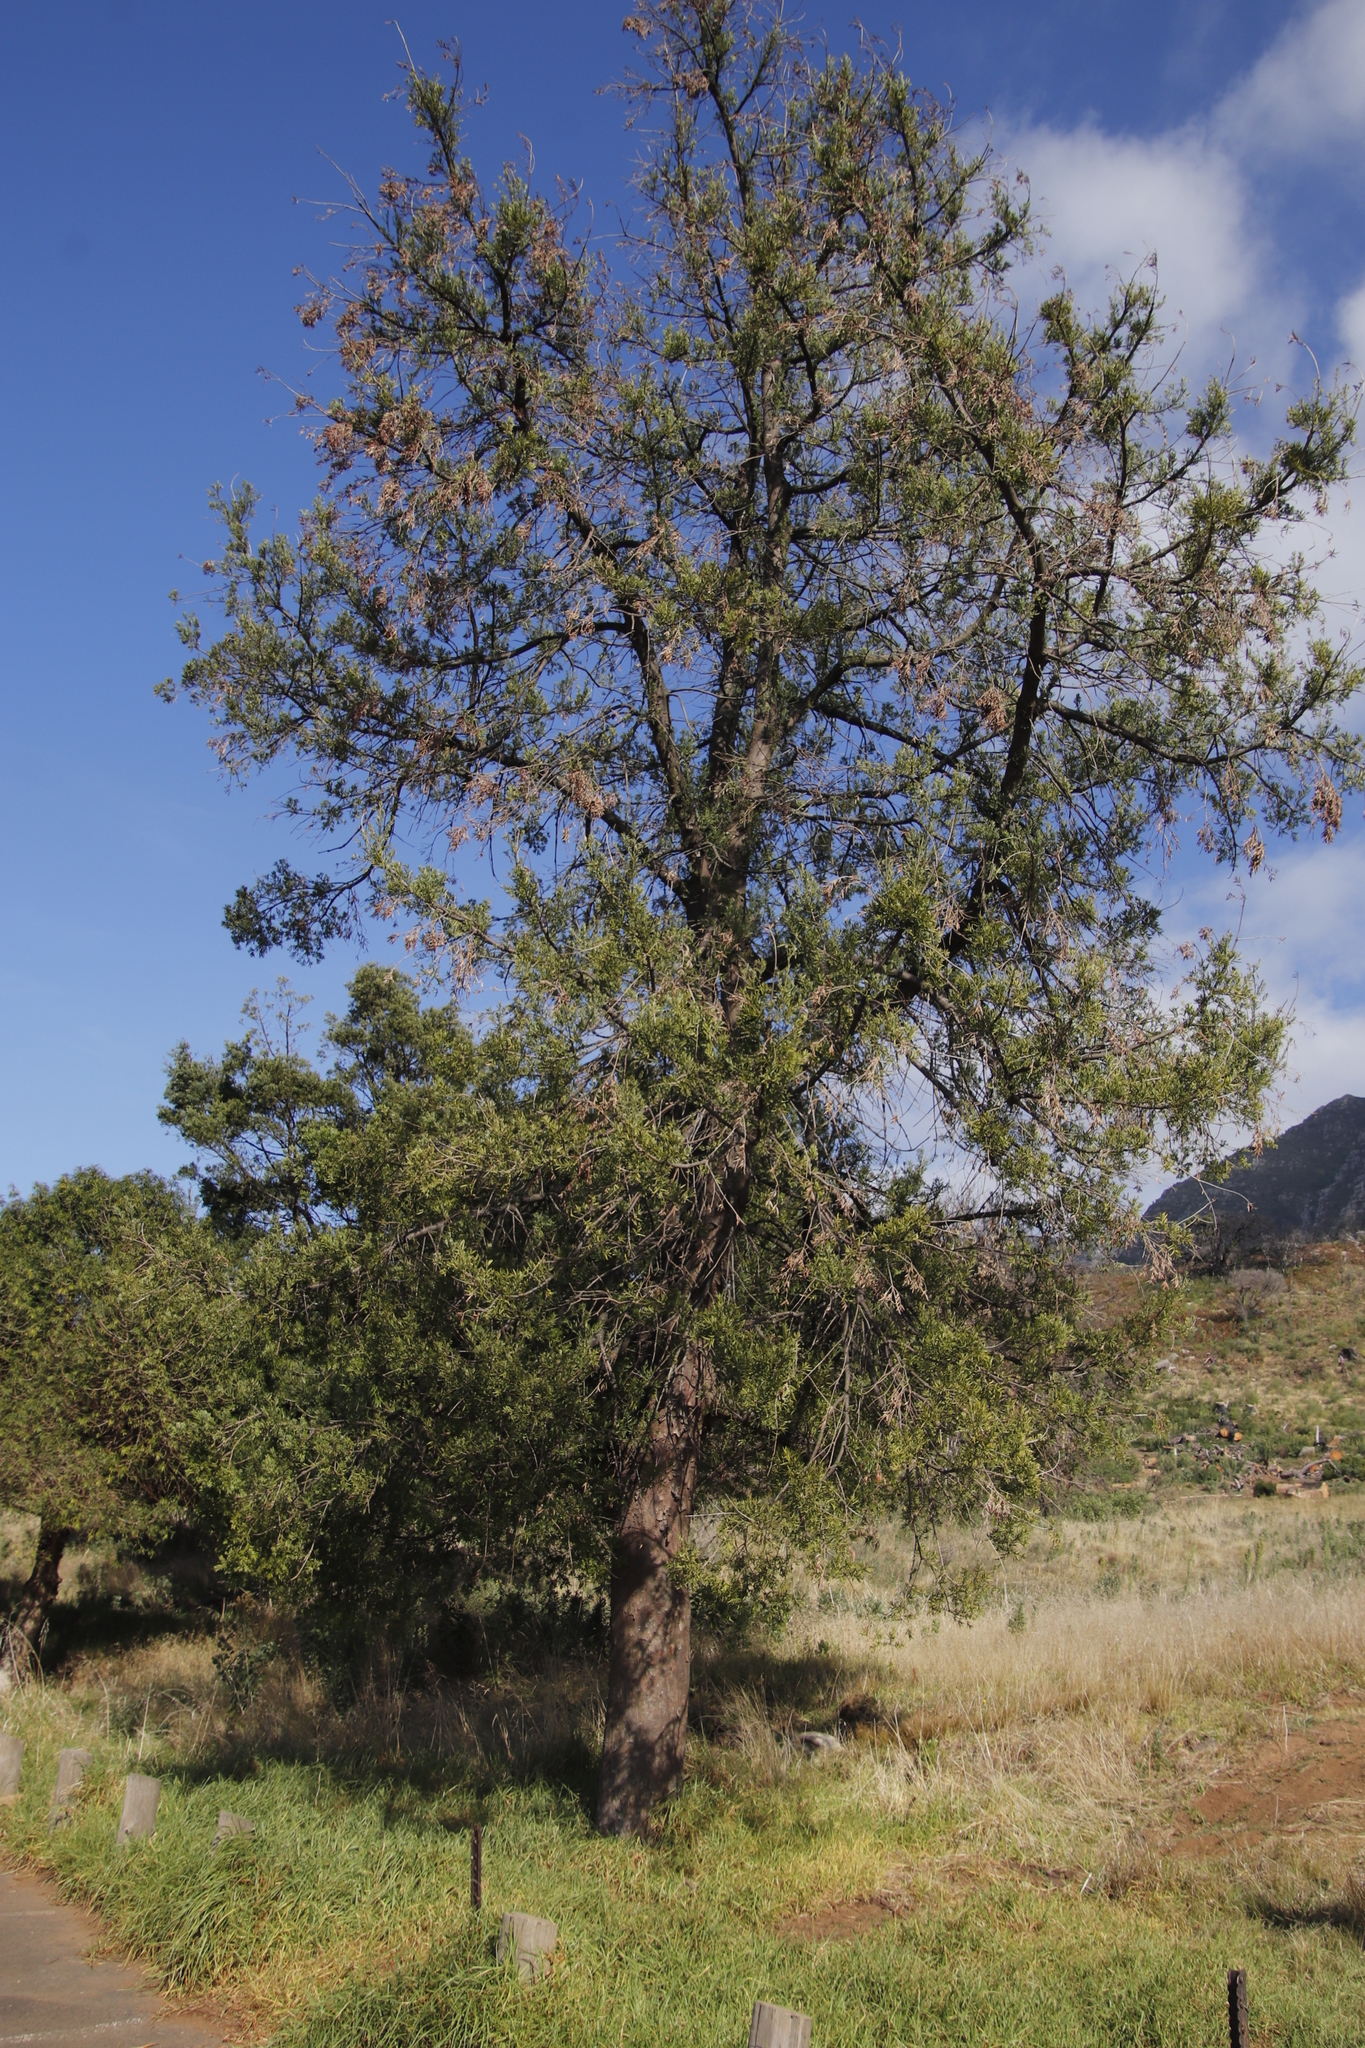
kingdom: Plantae
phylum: Tracheophyta
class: Pinopsida
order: Pinales
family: Podocarpaceae
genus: Afrocarpus
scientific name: Afrocarpus falcatus
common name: Bastard yellowwood
